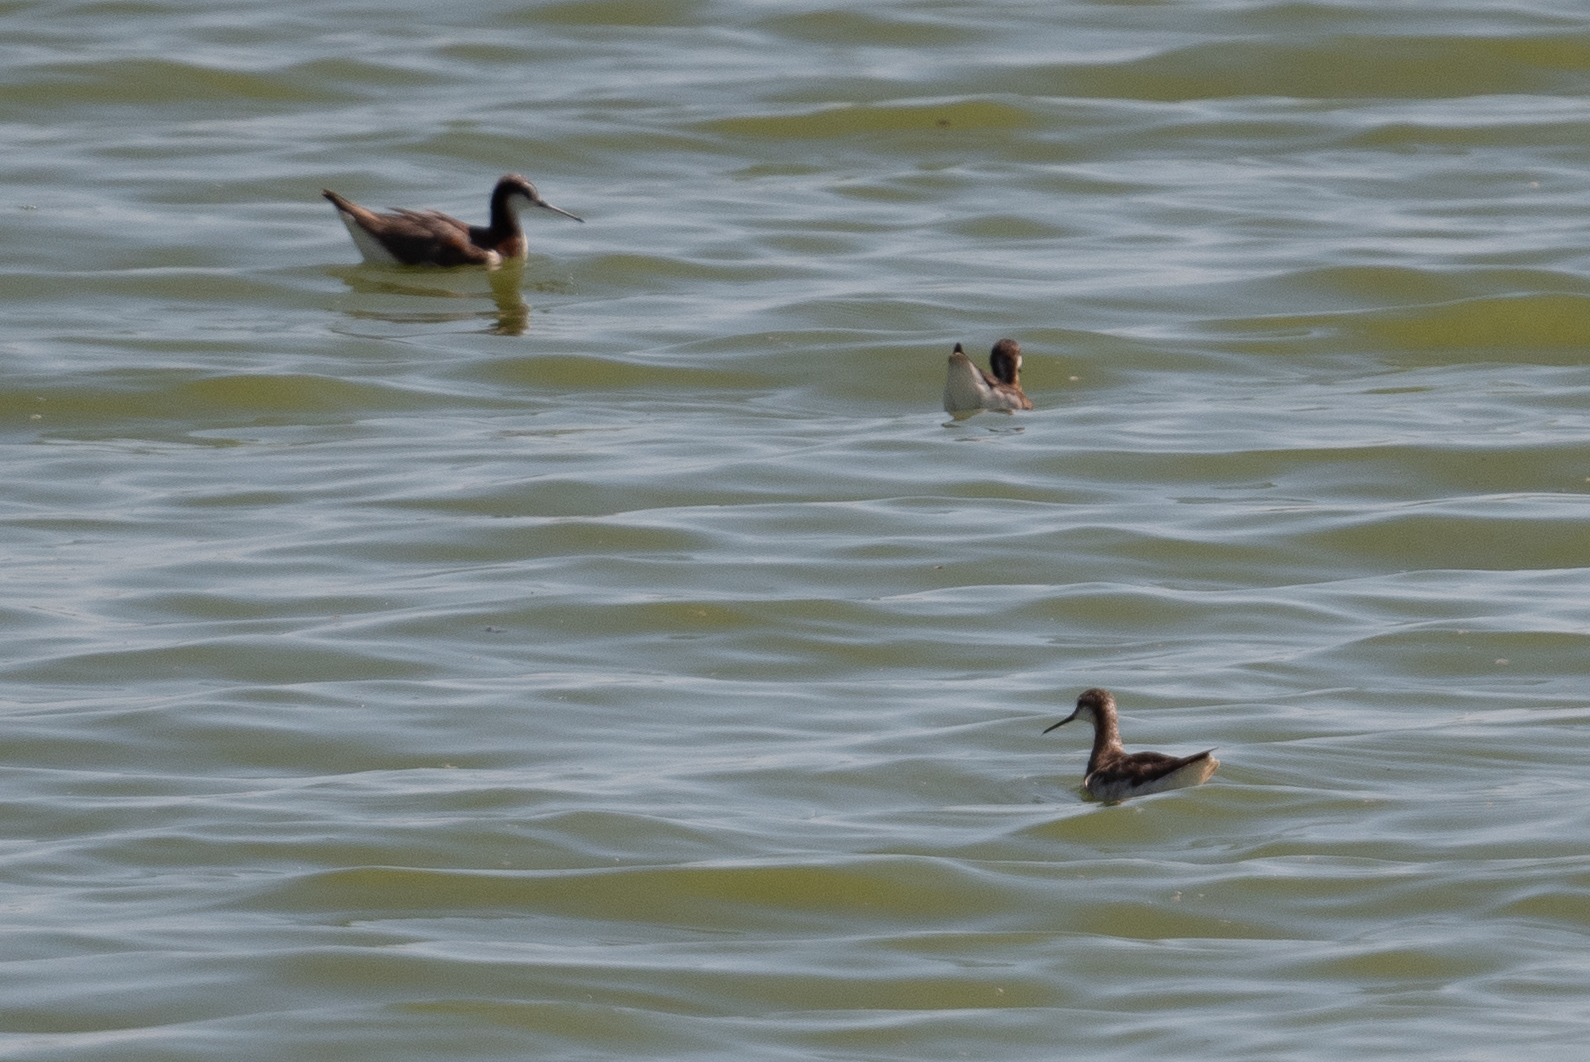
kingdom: Animalia
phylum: Chordata
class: Aves
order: Charadriiformes
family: Scolopacidae
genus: Phalaropus
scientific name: Phalaropus tricolor
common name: Wilson's phalarope
